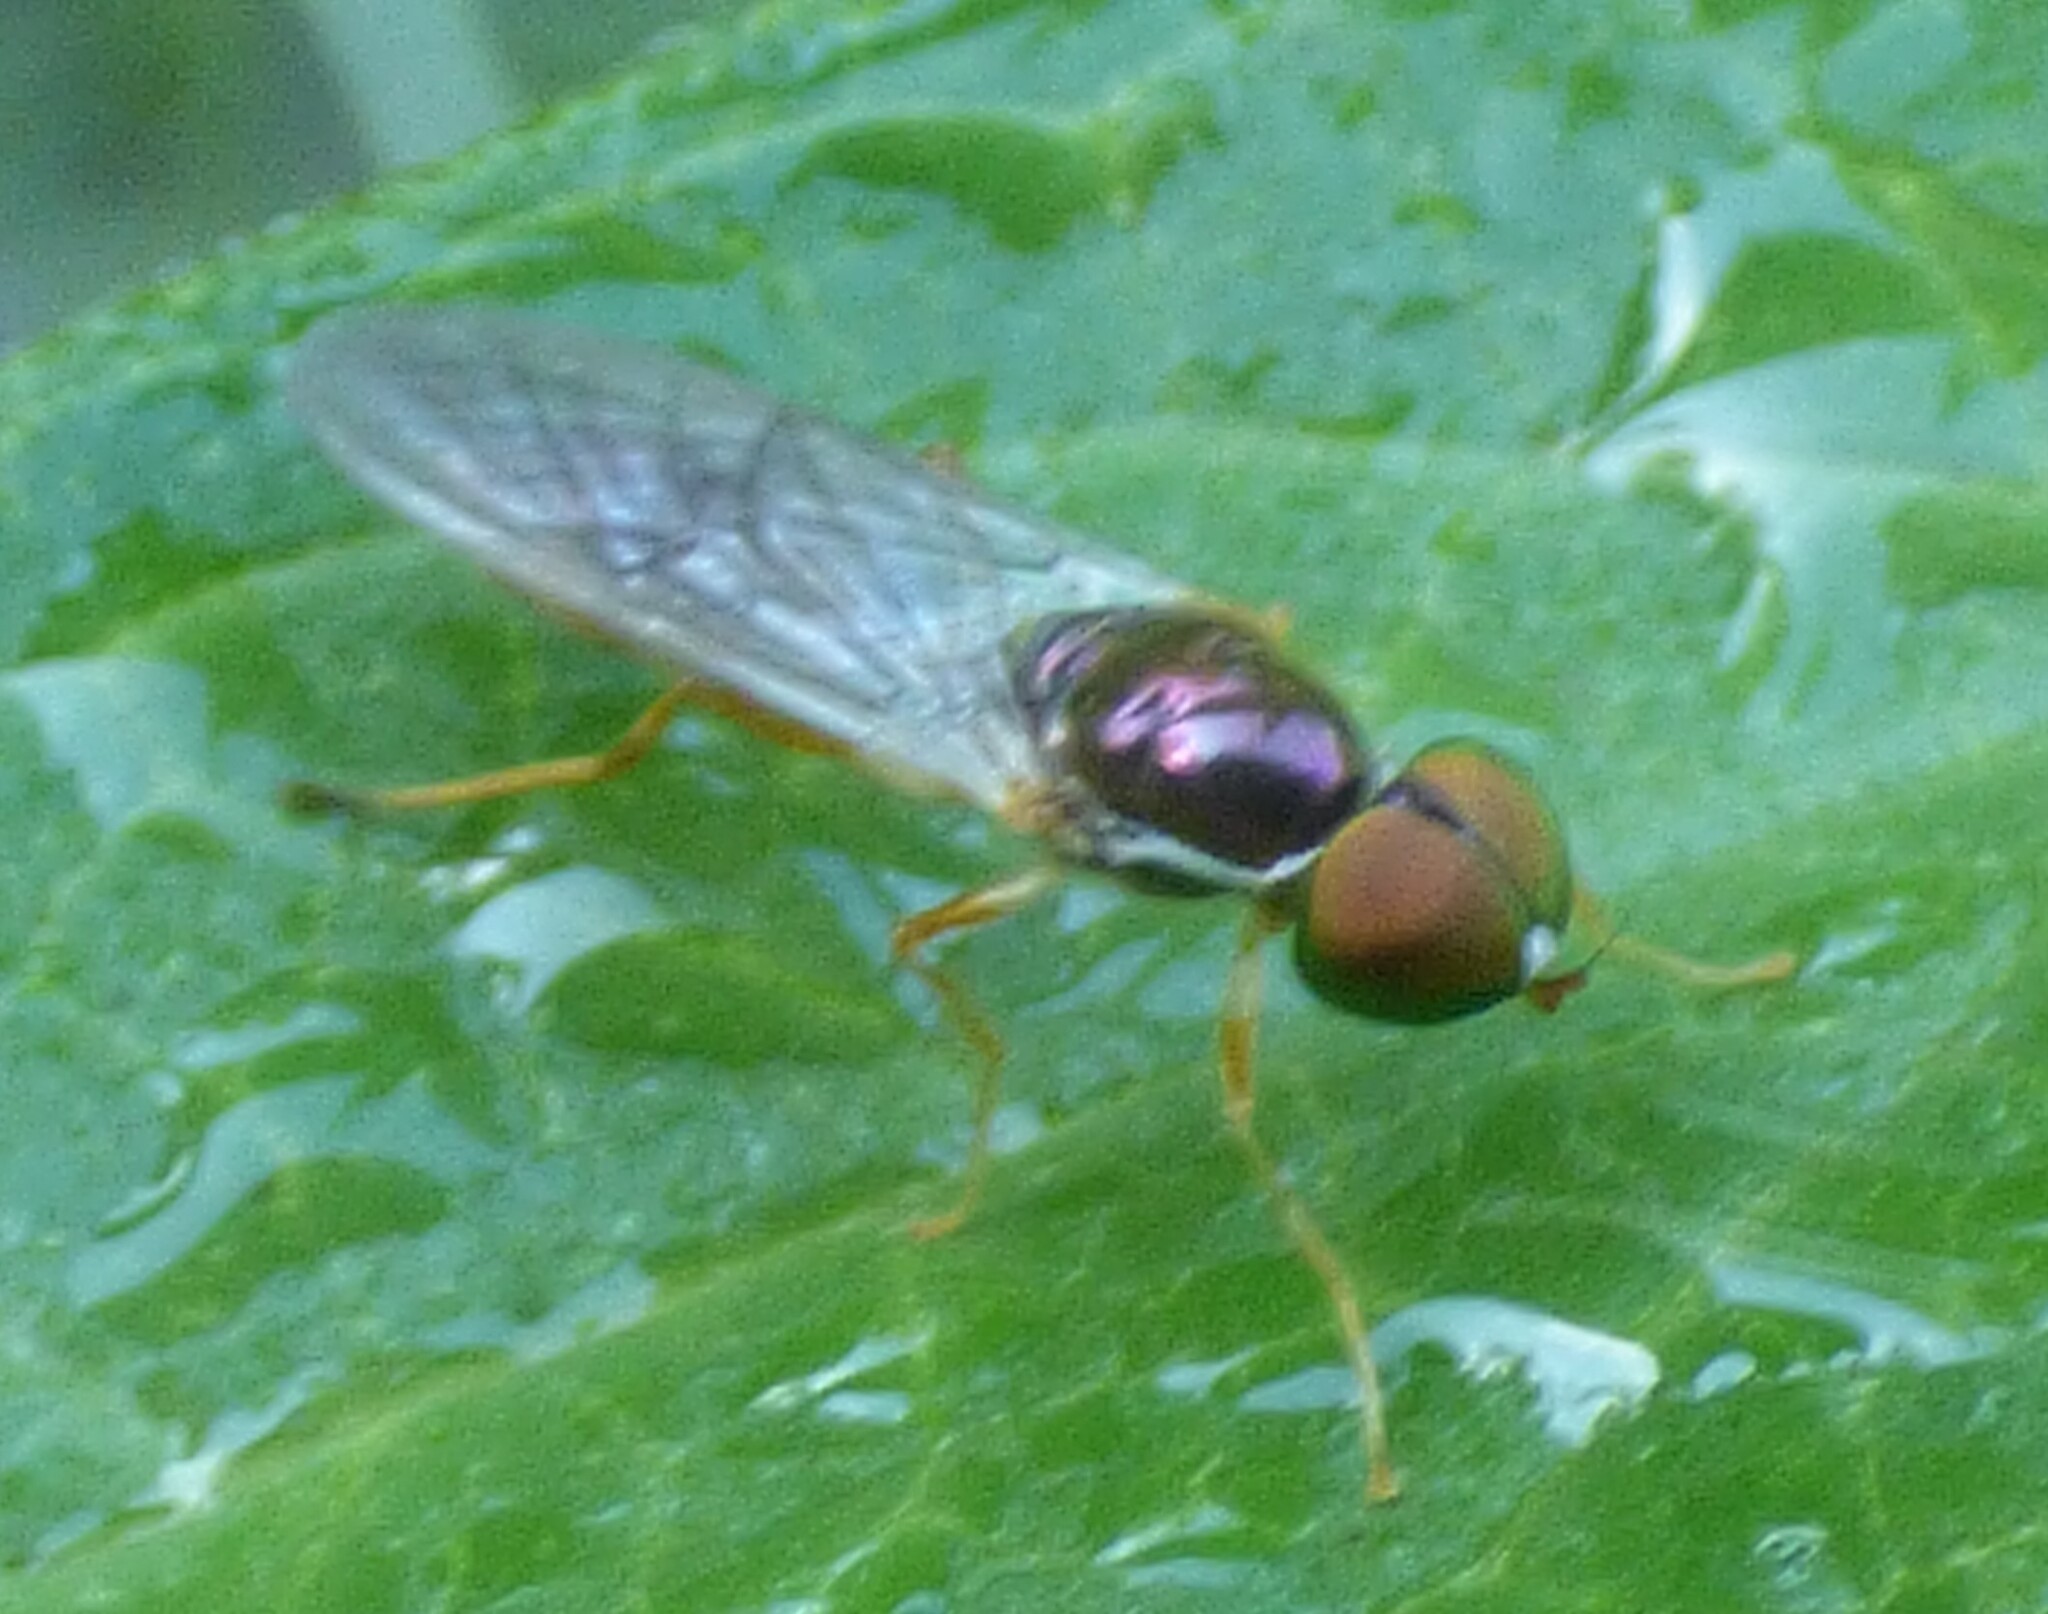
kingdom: Animalia
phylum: Arthropoda
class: Insecta
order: Diptera
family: Stratiomyidae
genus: Sargus
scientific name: Sargus fasciatus
